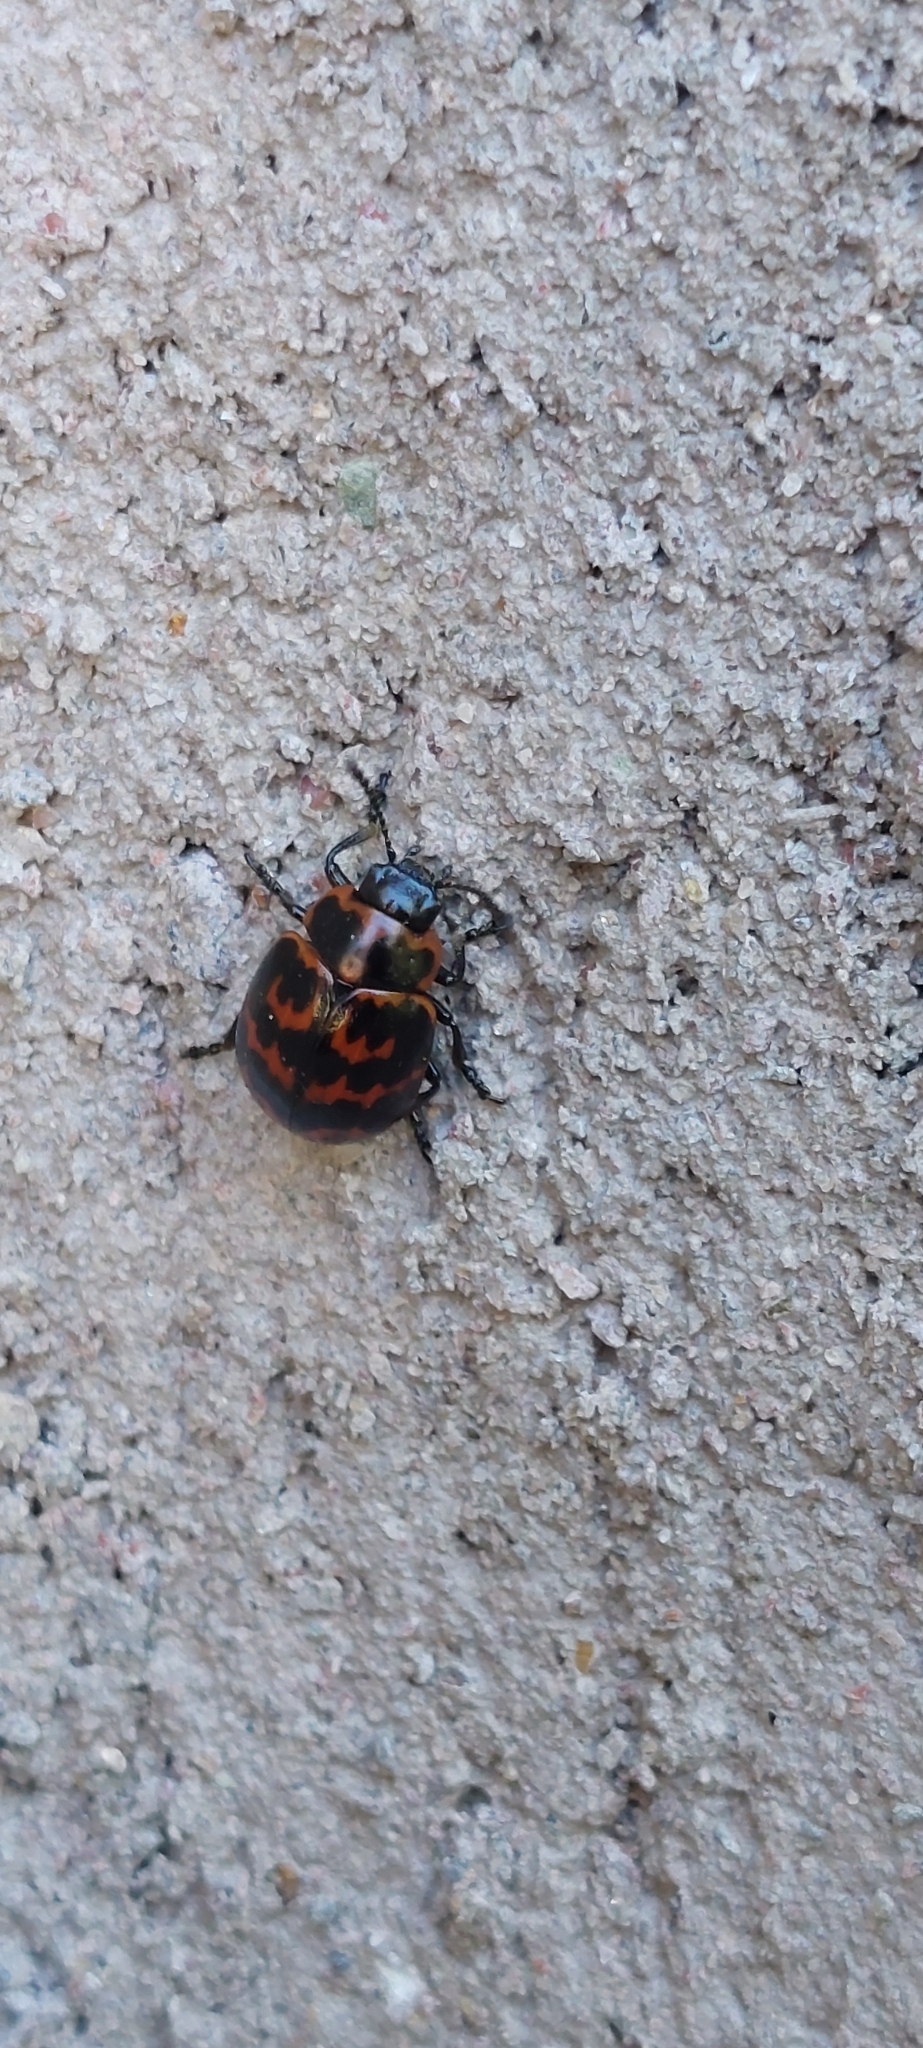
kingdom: Animalia
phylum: Arthropoda
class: Insecta
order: Coleoptera
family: Chrysomelidae
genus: Platyphora
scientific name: Platyphora
